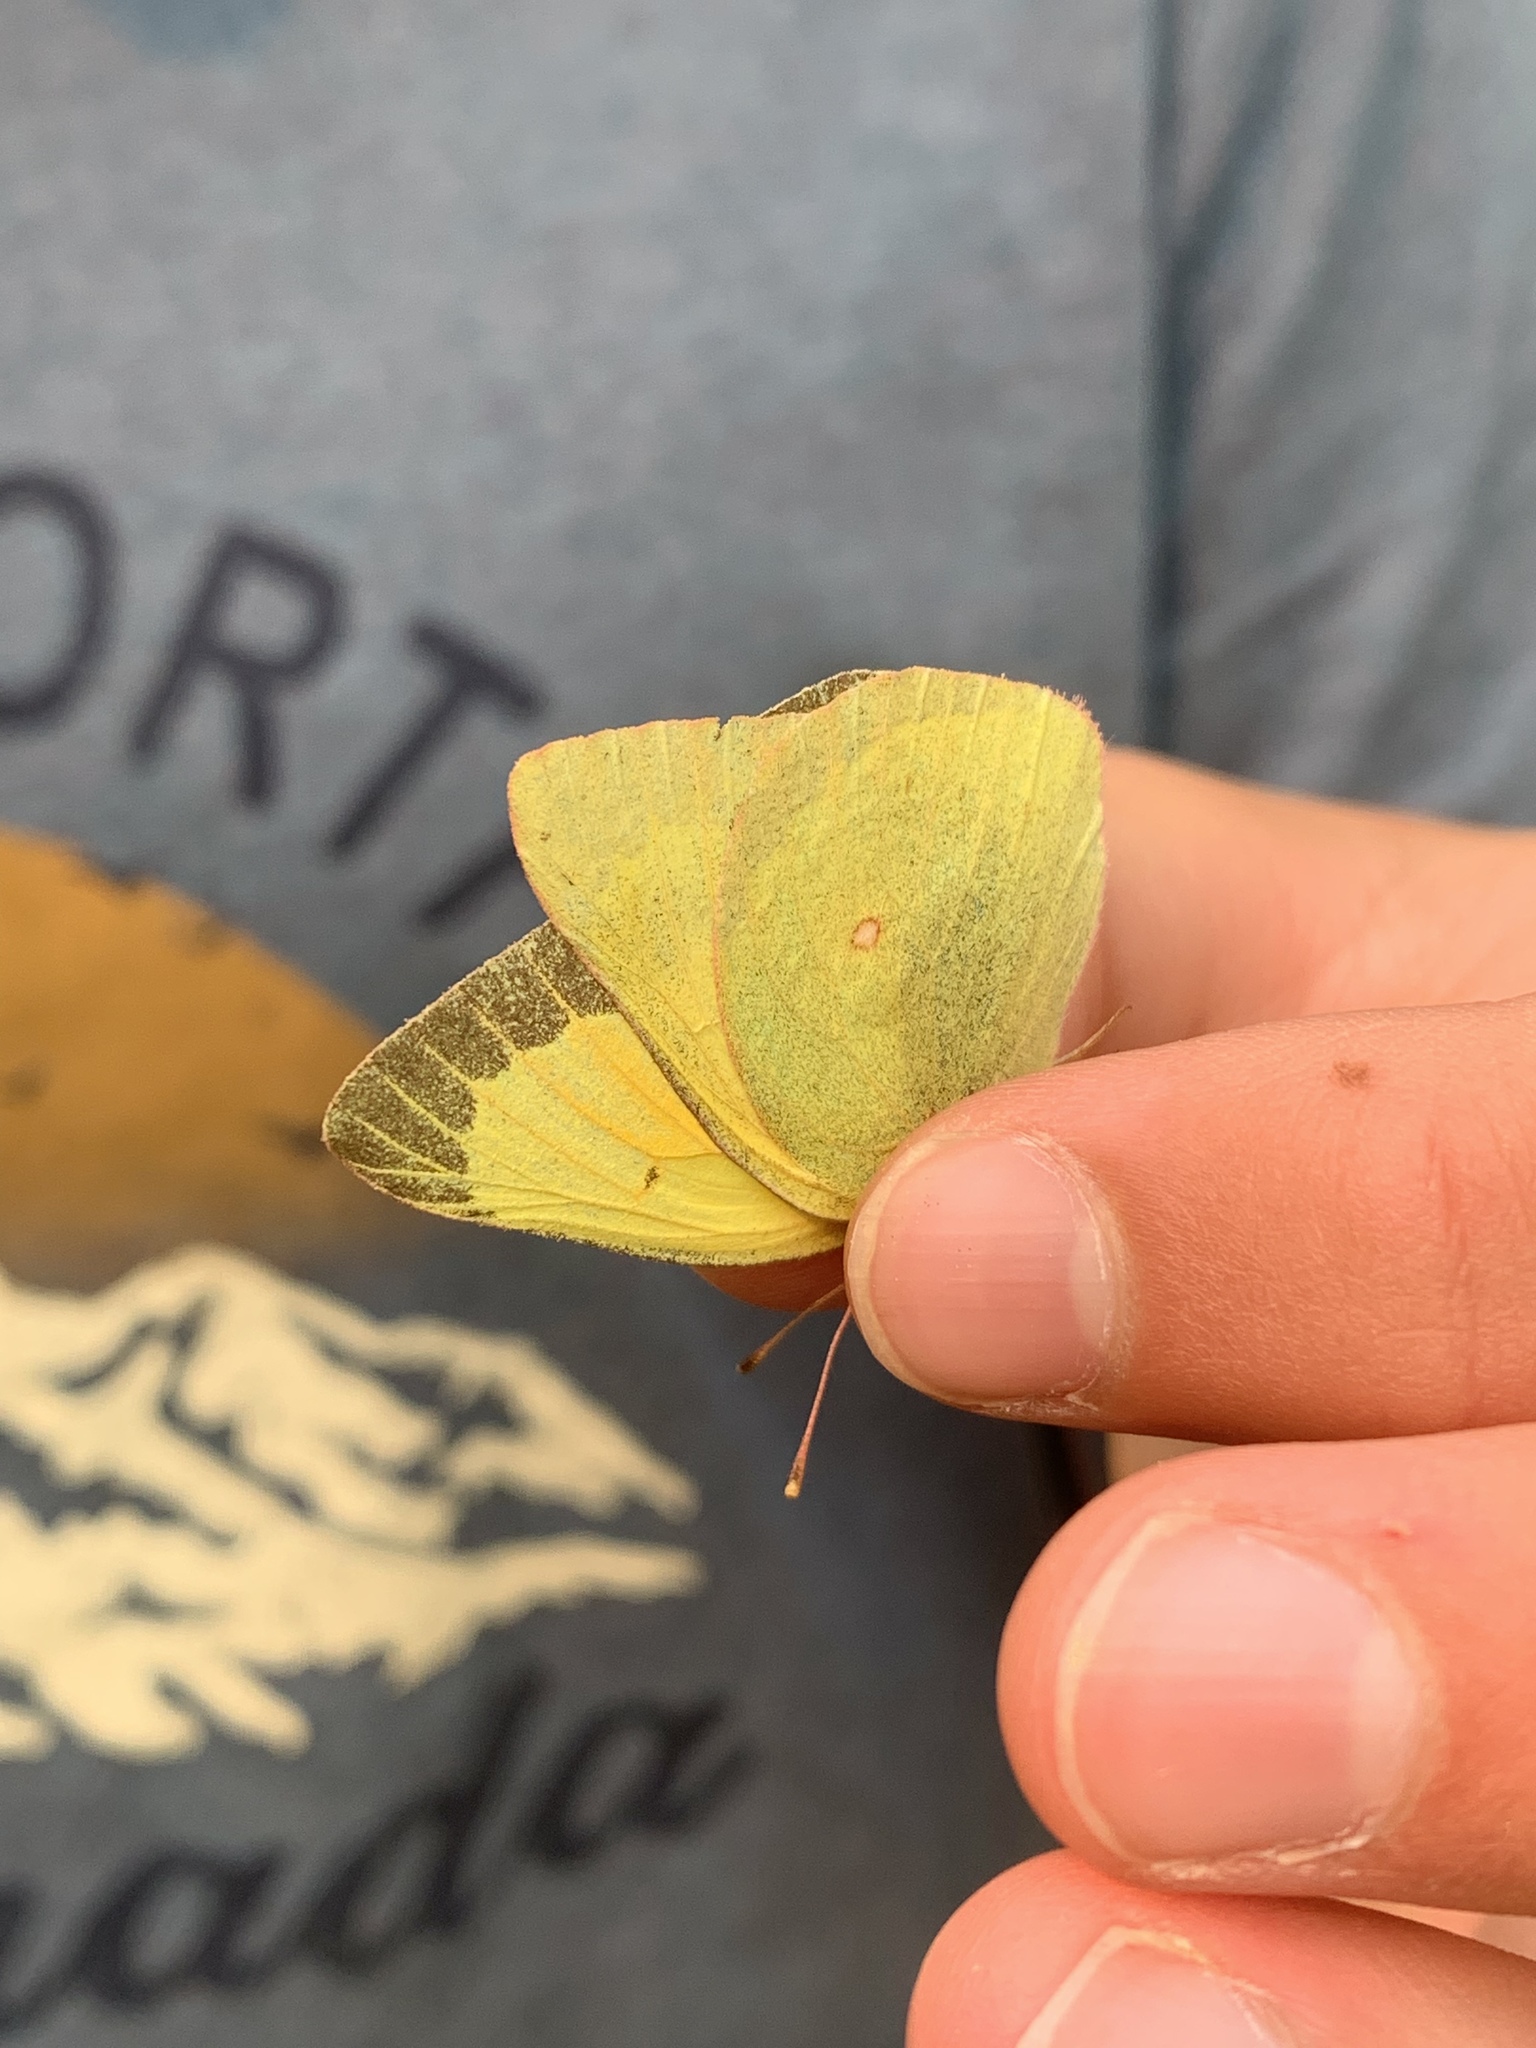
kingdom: Animalia
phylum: Arthropoda
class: Insecta
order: Lepidoptera
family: Pieridae
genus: Colias
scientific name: Colias christina
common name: Christina sulphur
